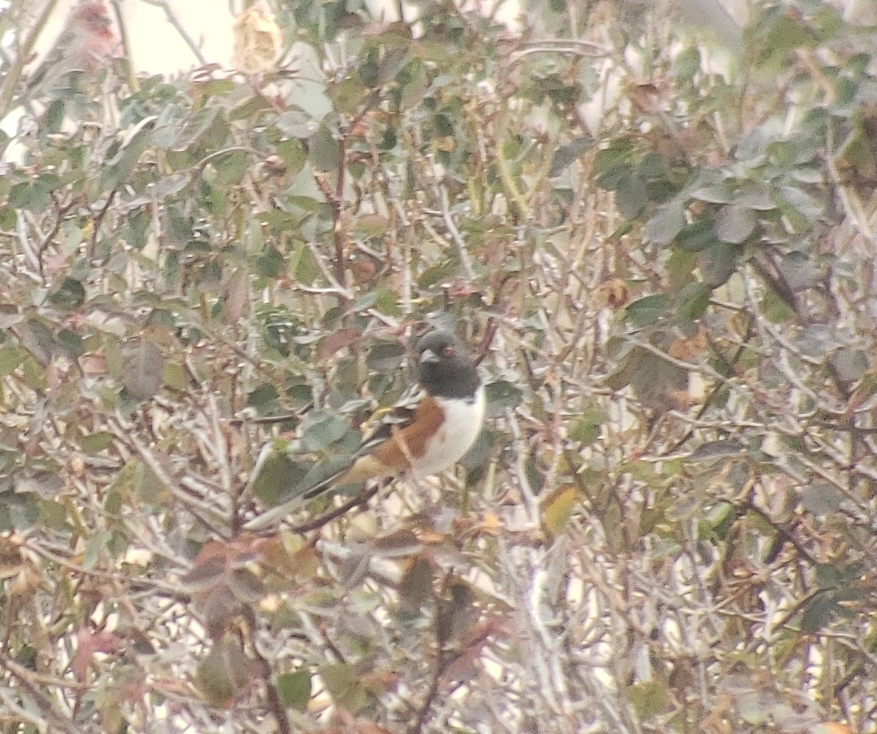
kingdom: Animalia
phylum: Chordata
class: Aves
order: Passeriformes
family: Passerellidae
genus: Pipilo
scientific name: Pipilo maculatus
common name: Spotted towhee
